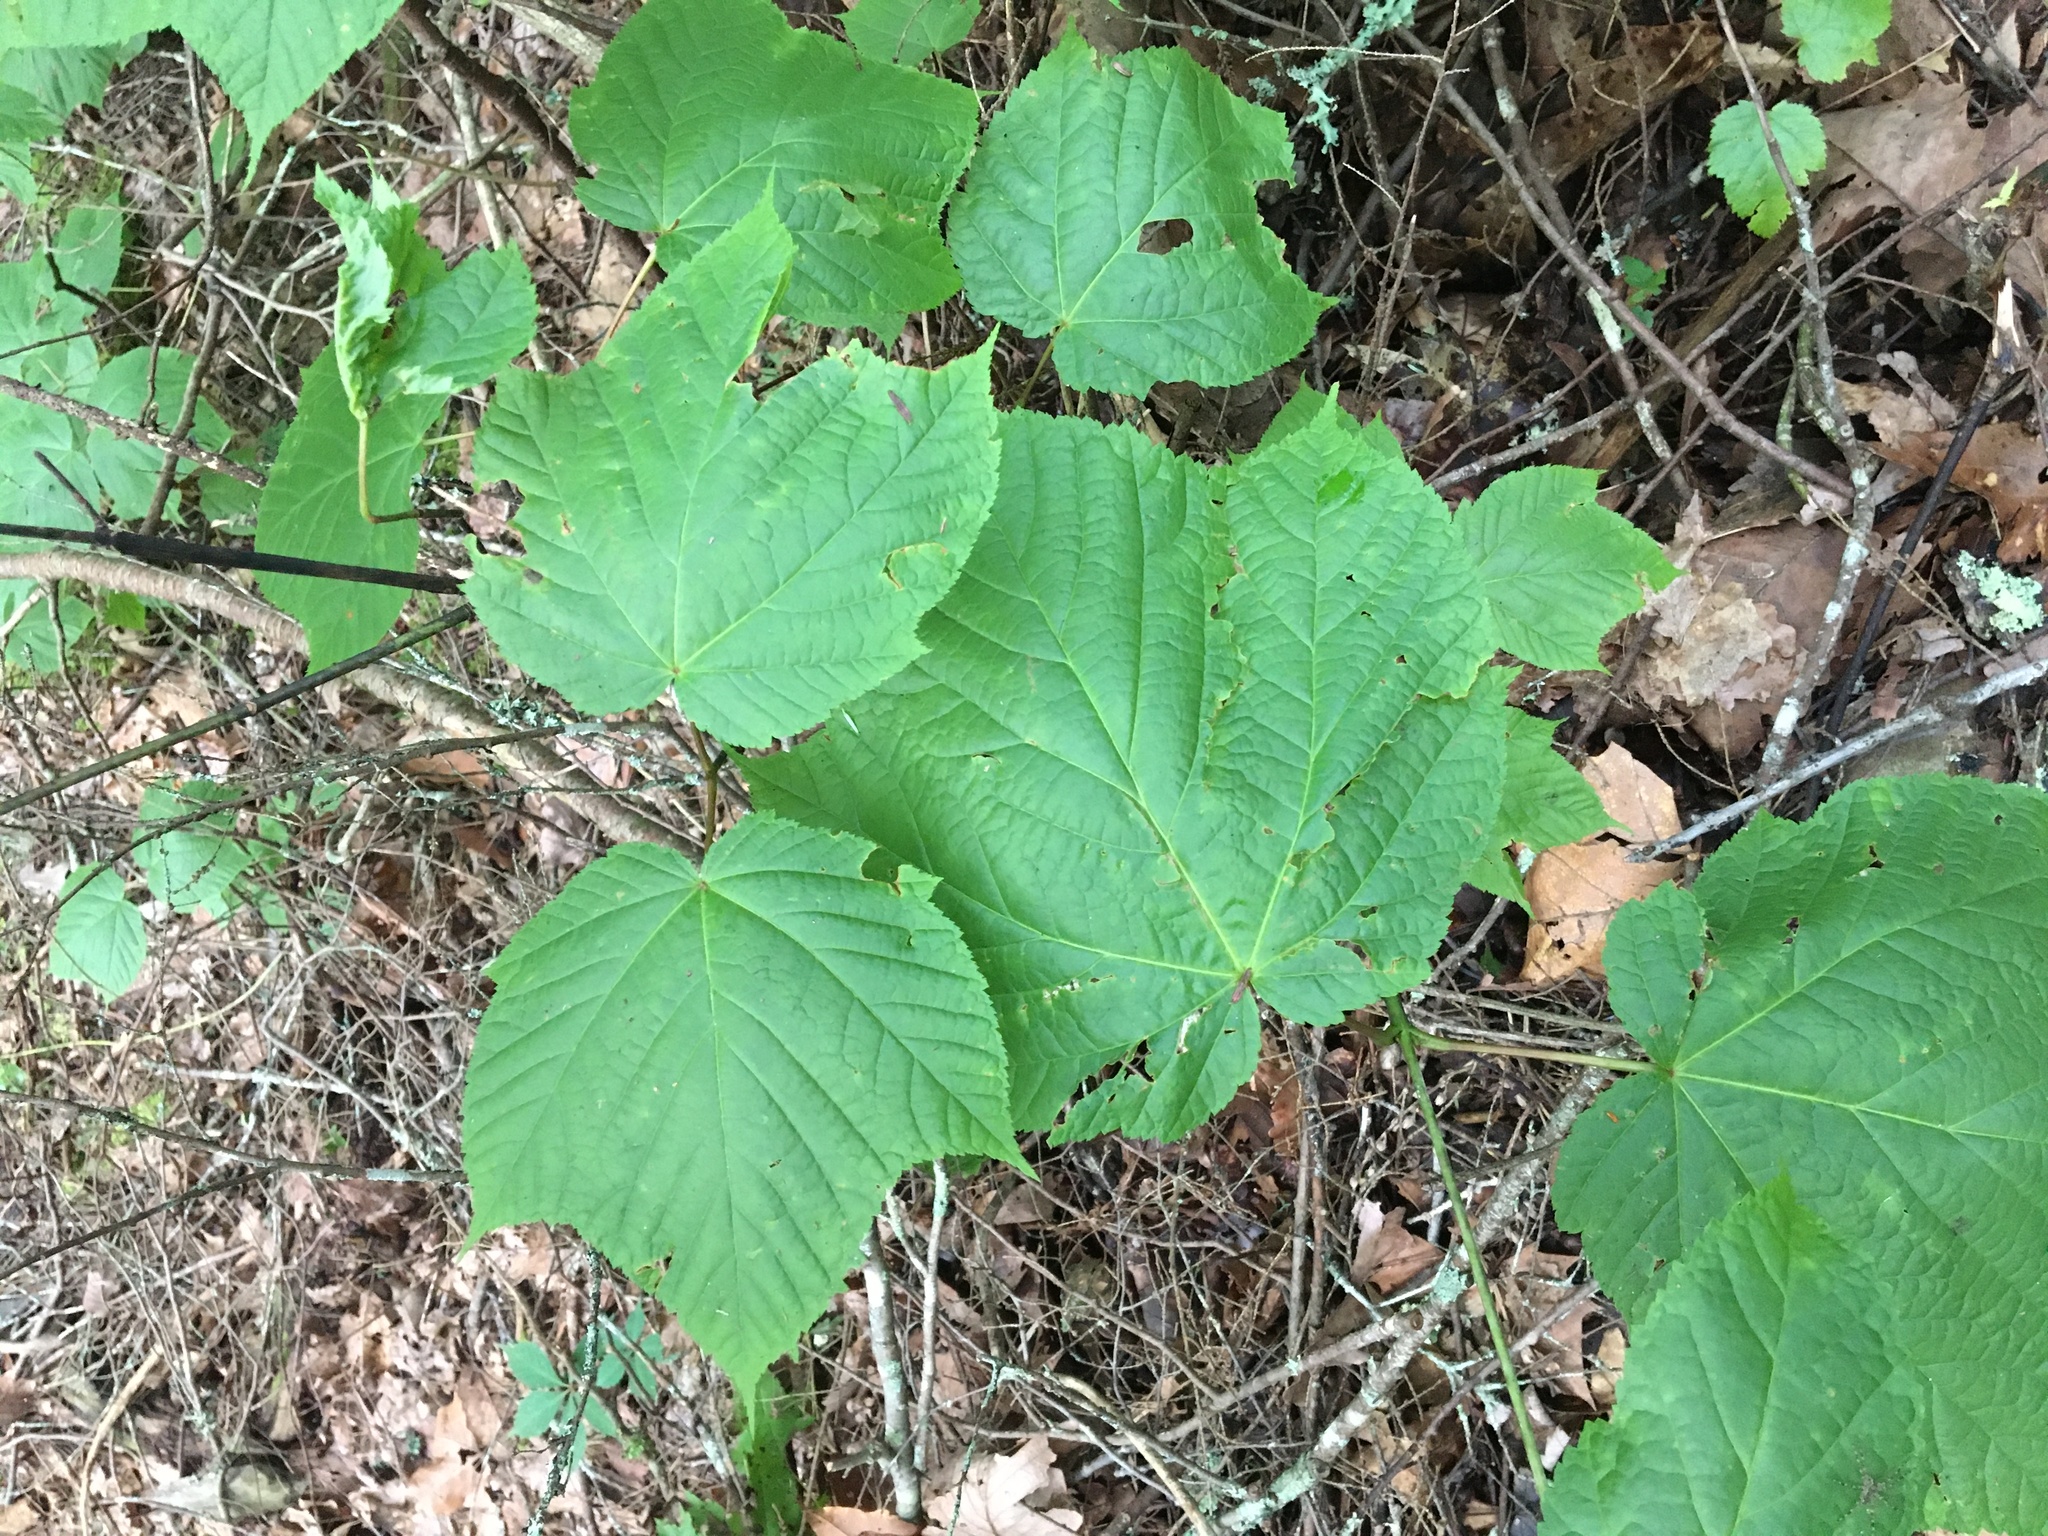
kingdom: Plantae
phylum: Tracheophyta
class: Magnoliopsida
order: Sapindales
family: Sapindaceae
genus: Acer
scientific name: Acer pensylvanicum
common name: Moosewood
